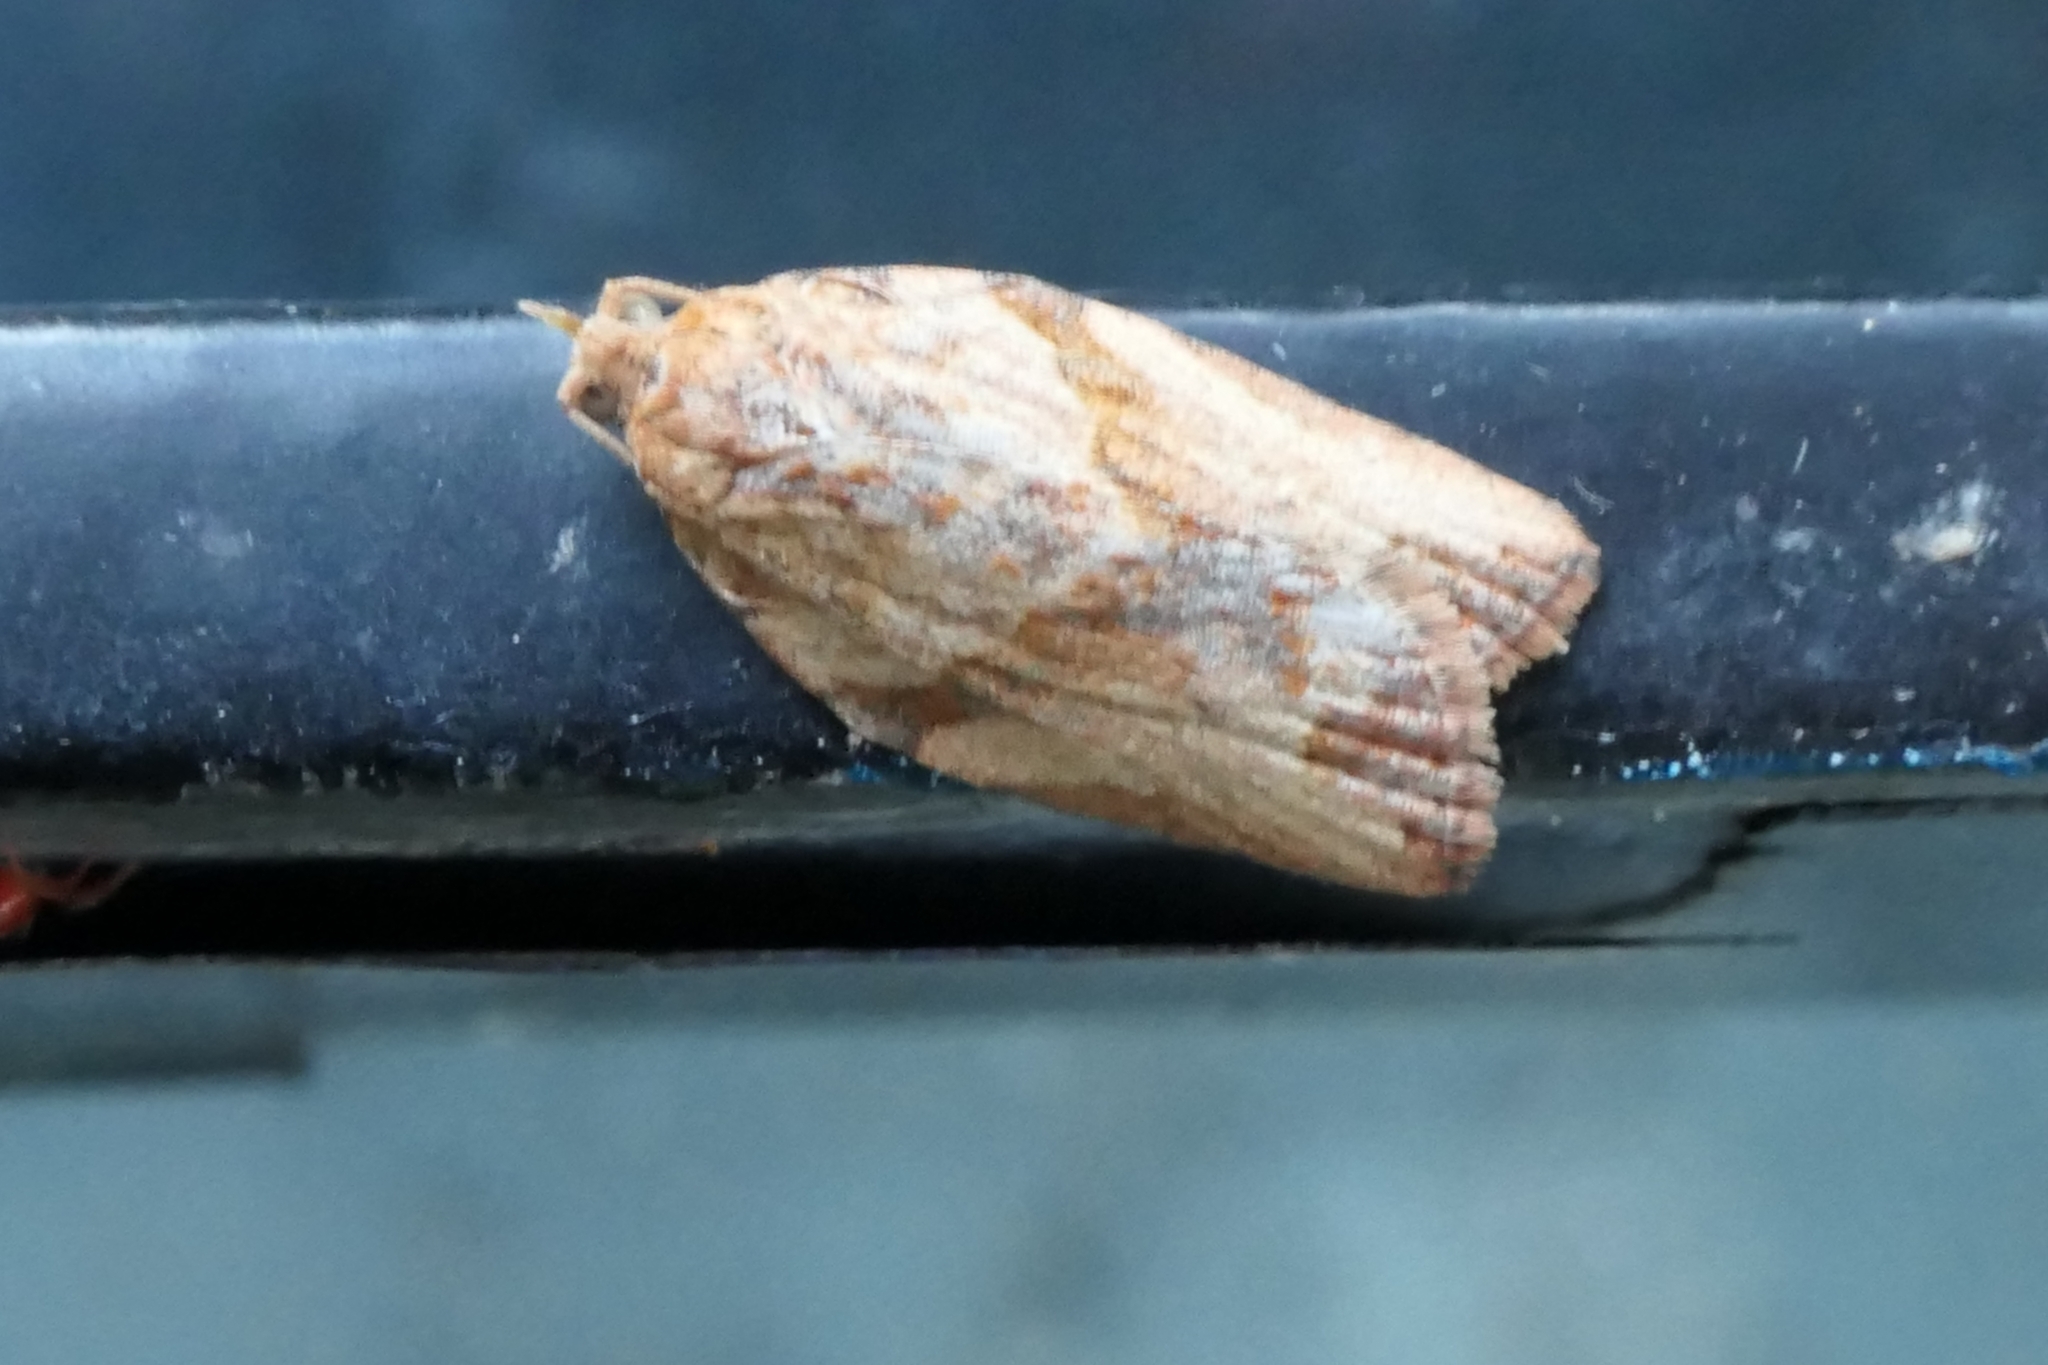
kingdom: Animalia
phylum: Arthropoda
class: Insecta
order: Lepidoptera
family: Tortricidae
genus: Epiphyas
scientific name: Epiphyas postvittana
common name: Light brown apple moth
